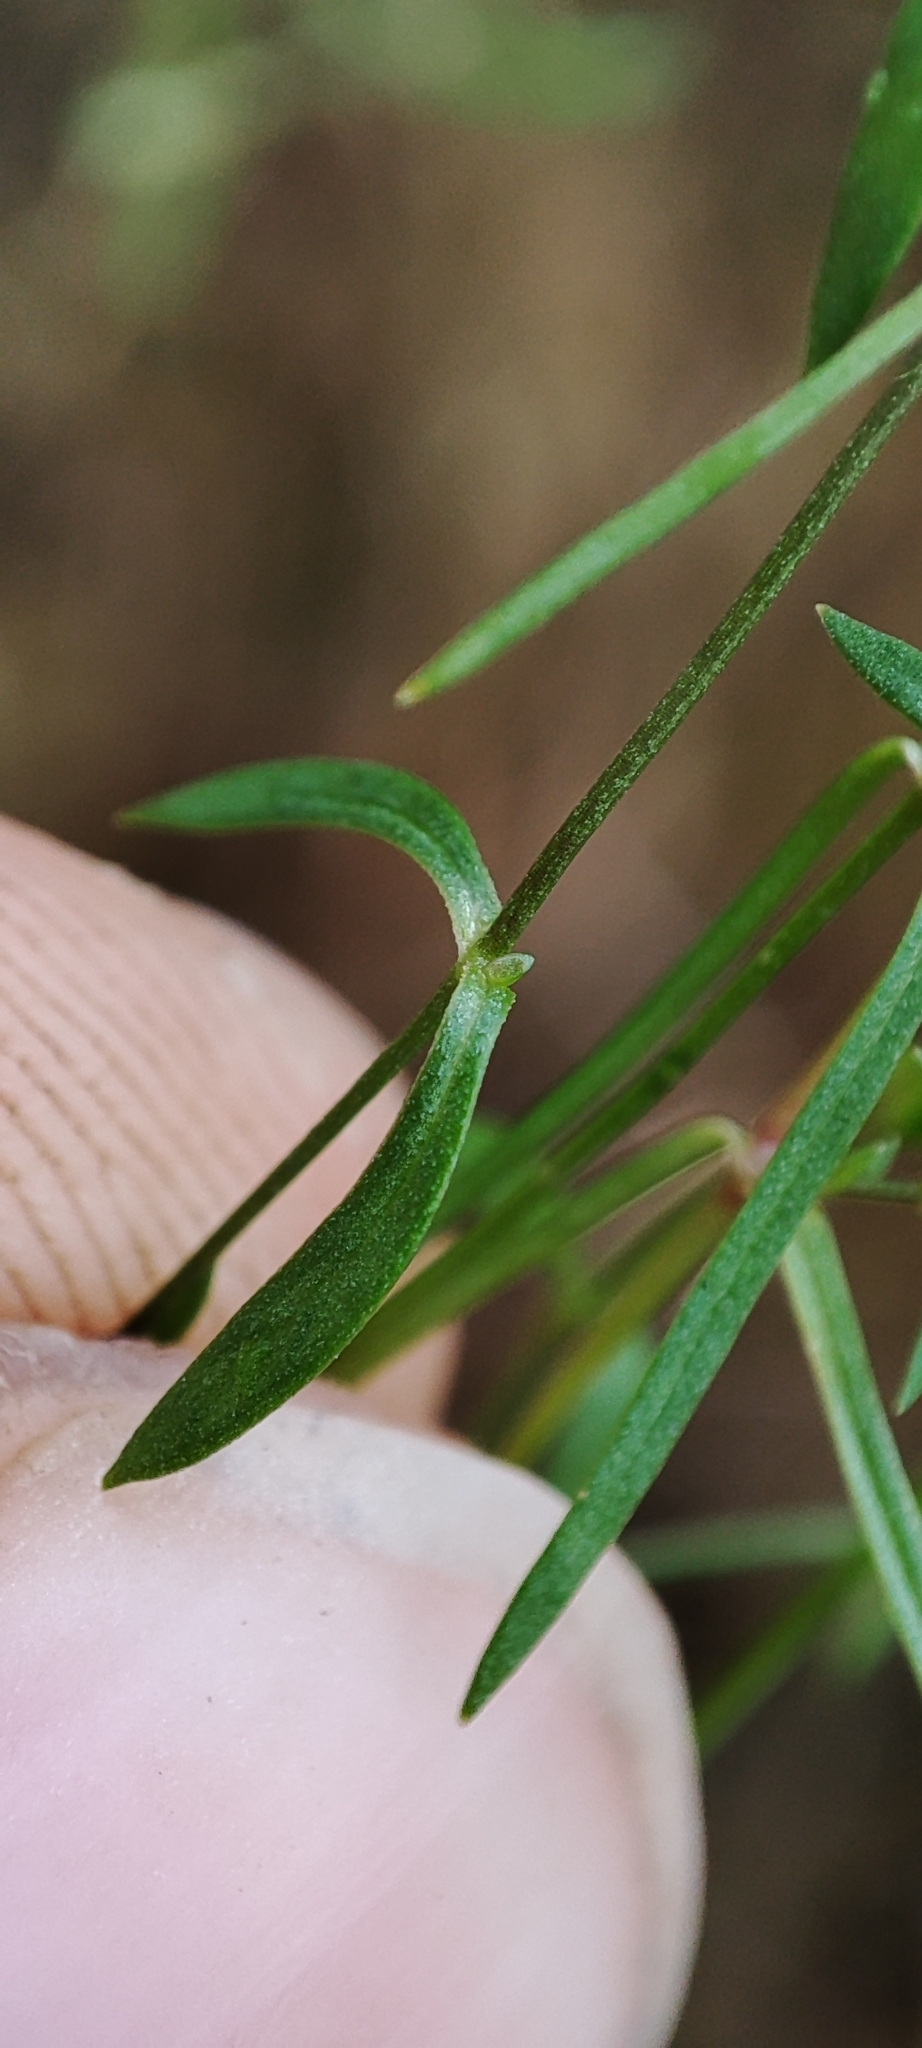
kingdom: Plantae
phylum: Tracheophyta
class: Magnoliopsida
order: Caryophyllales
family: Caryophyllaceae
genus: Stellaria
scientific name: Stellaria longifolia
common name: Long-leaved chickweed
